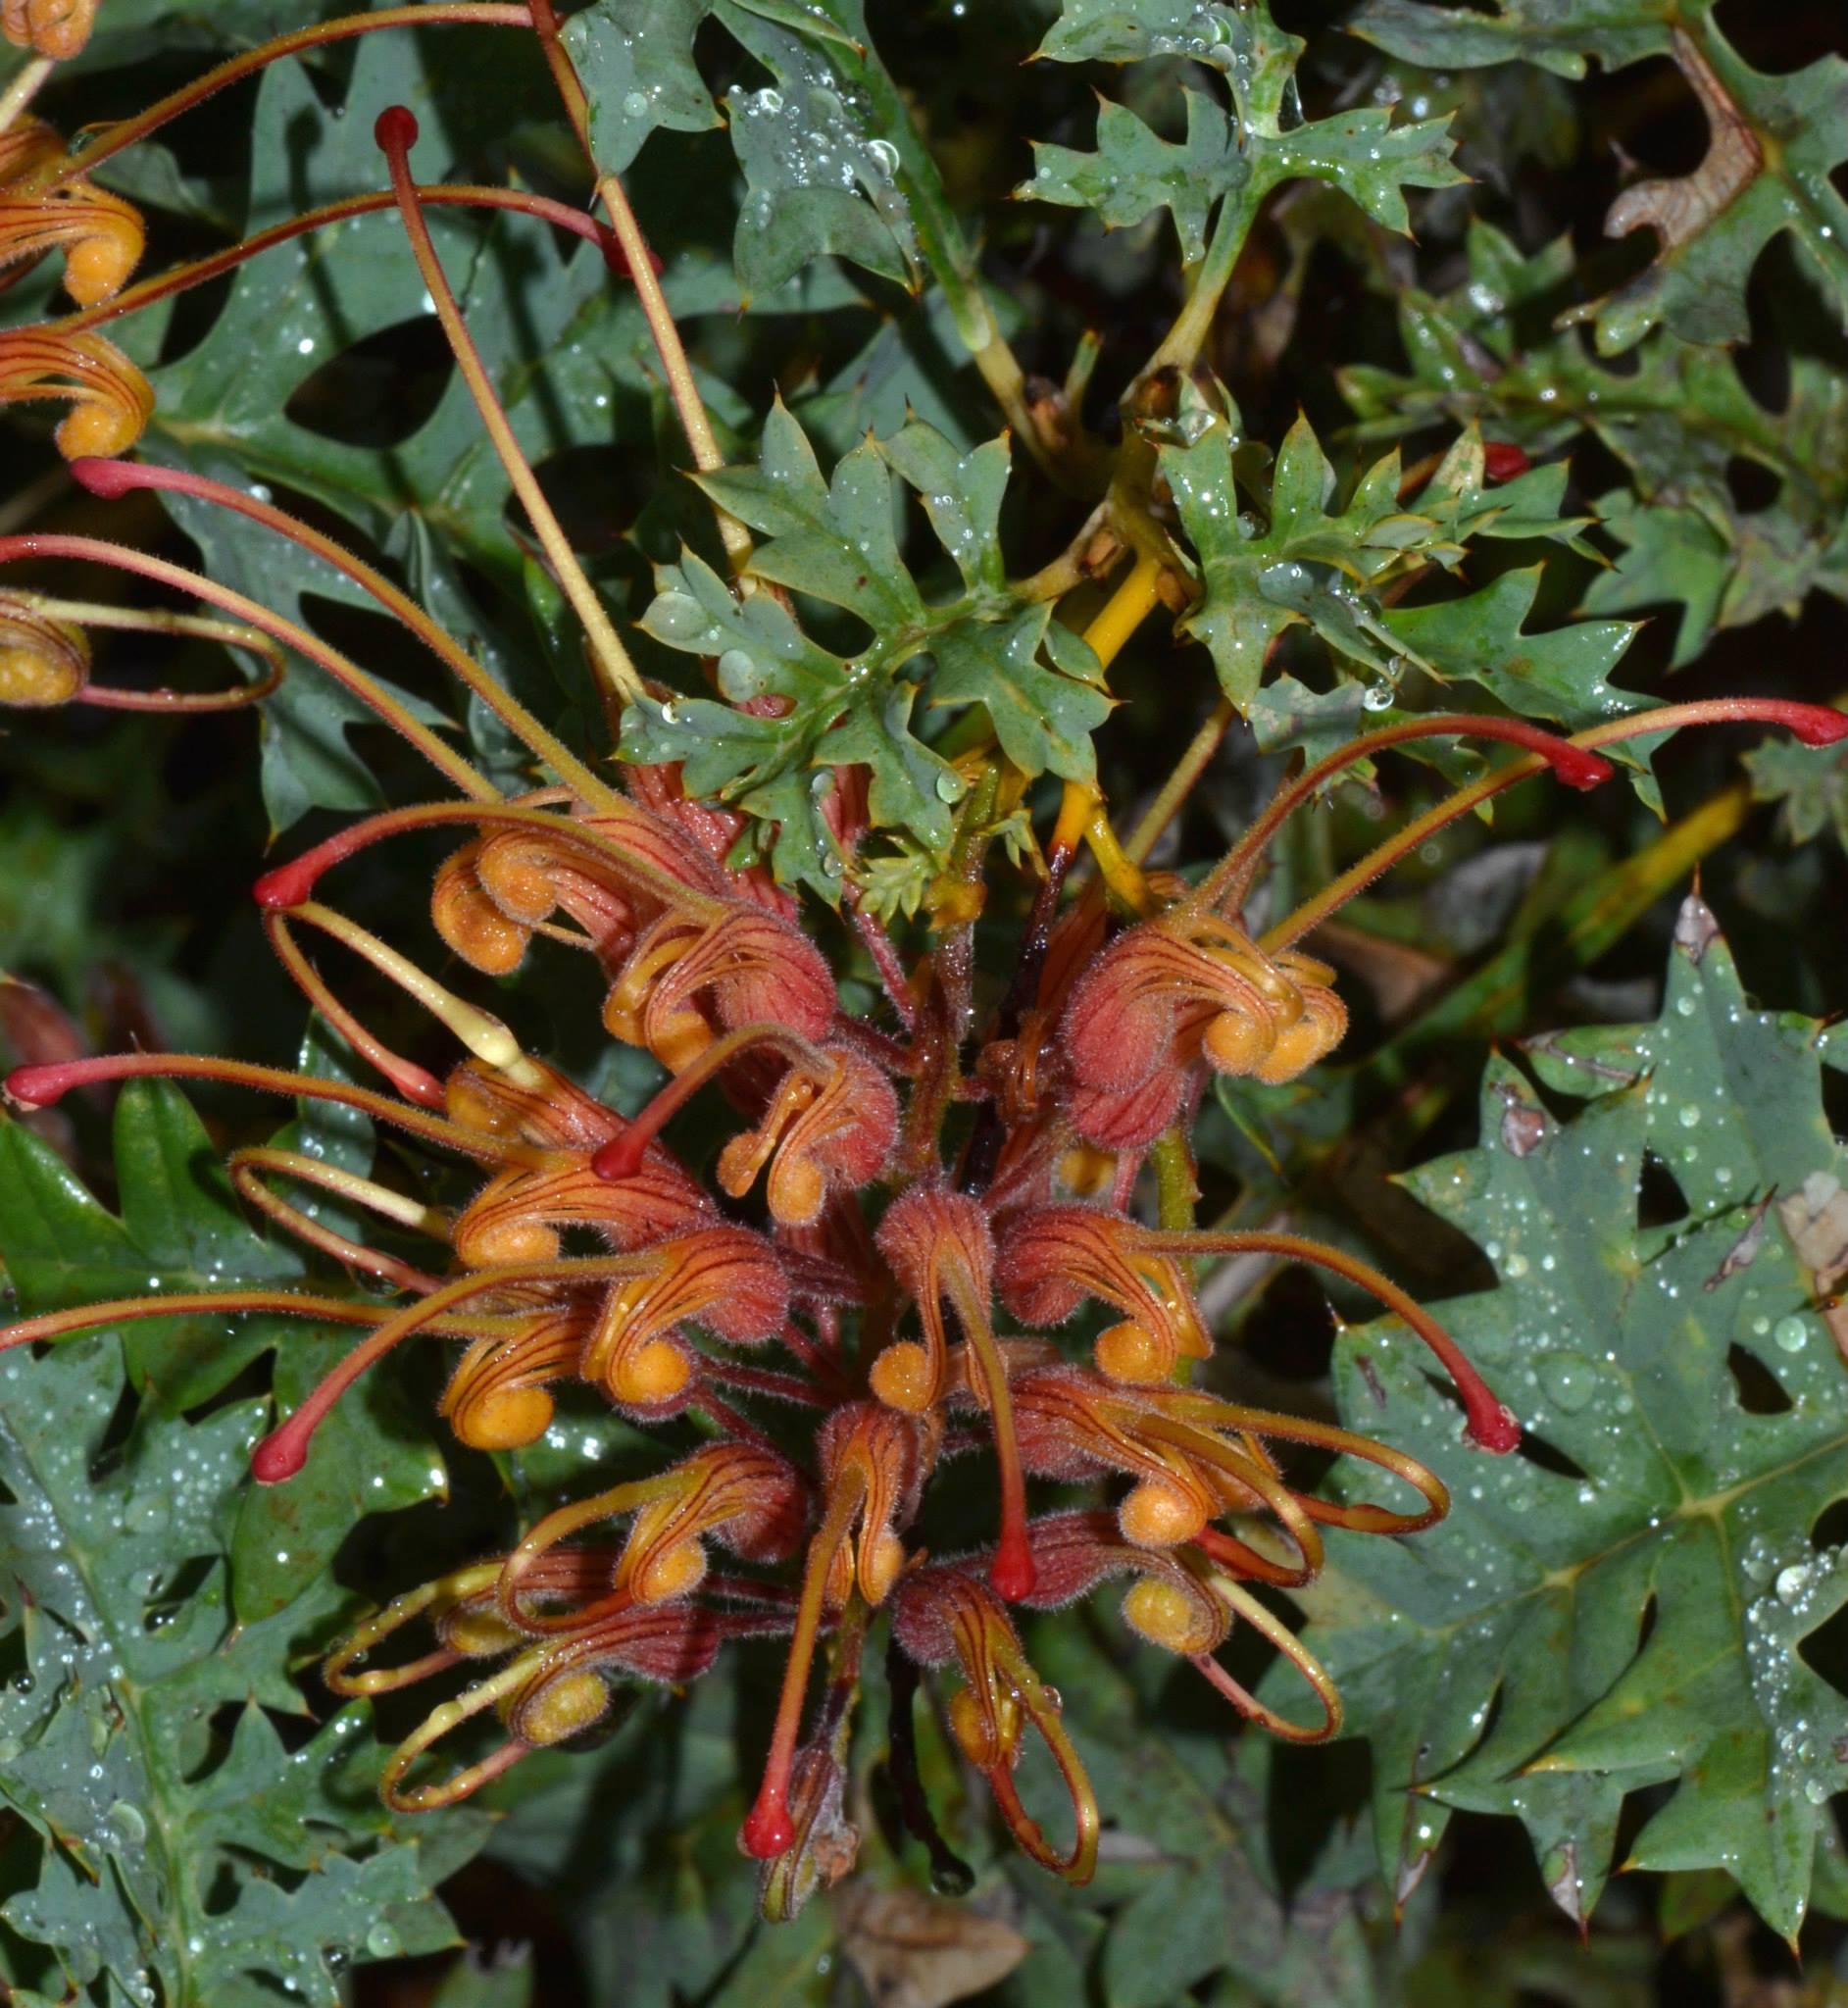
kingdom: Plantae
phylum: Tracheophyta
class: Magnoliopsida
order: Proteales
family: Proteaceae
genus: Grevillea
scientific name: Grevillea bipinnatifida
